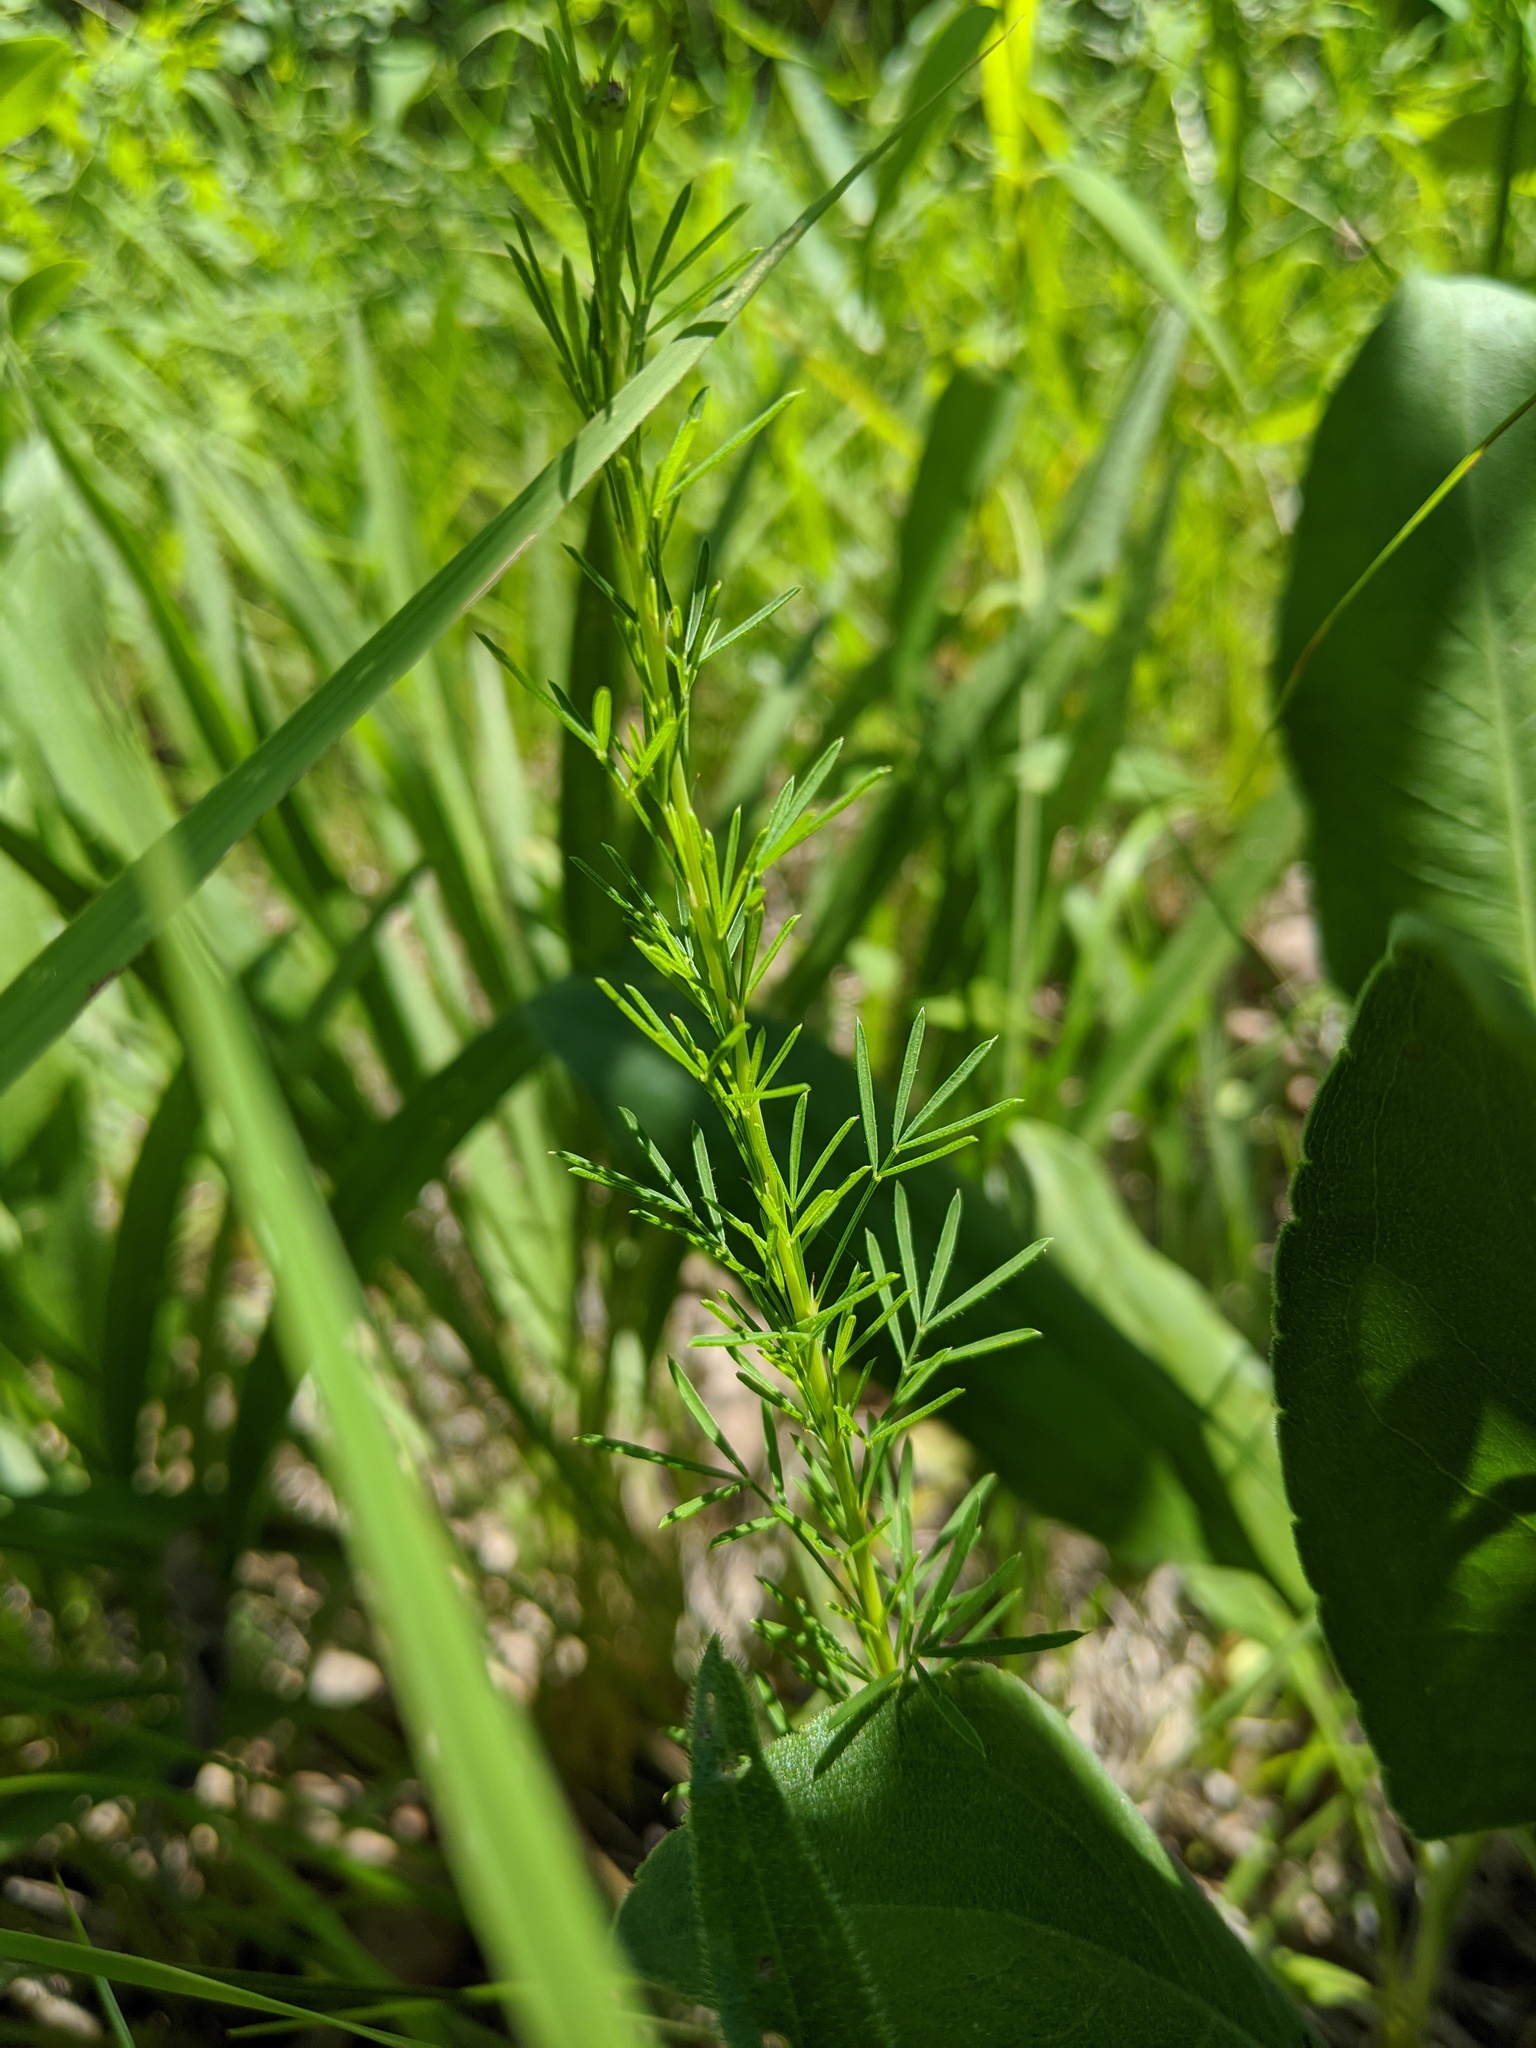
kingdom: Plantae
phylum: Tracheophyta
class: Magnoliopsida
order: Fabales
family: Fabaceae
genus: Dalea
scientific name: Dalea purpurea
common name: Purple prairie-clover
